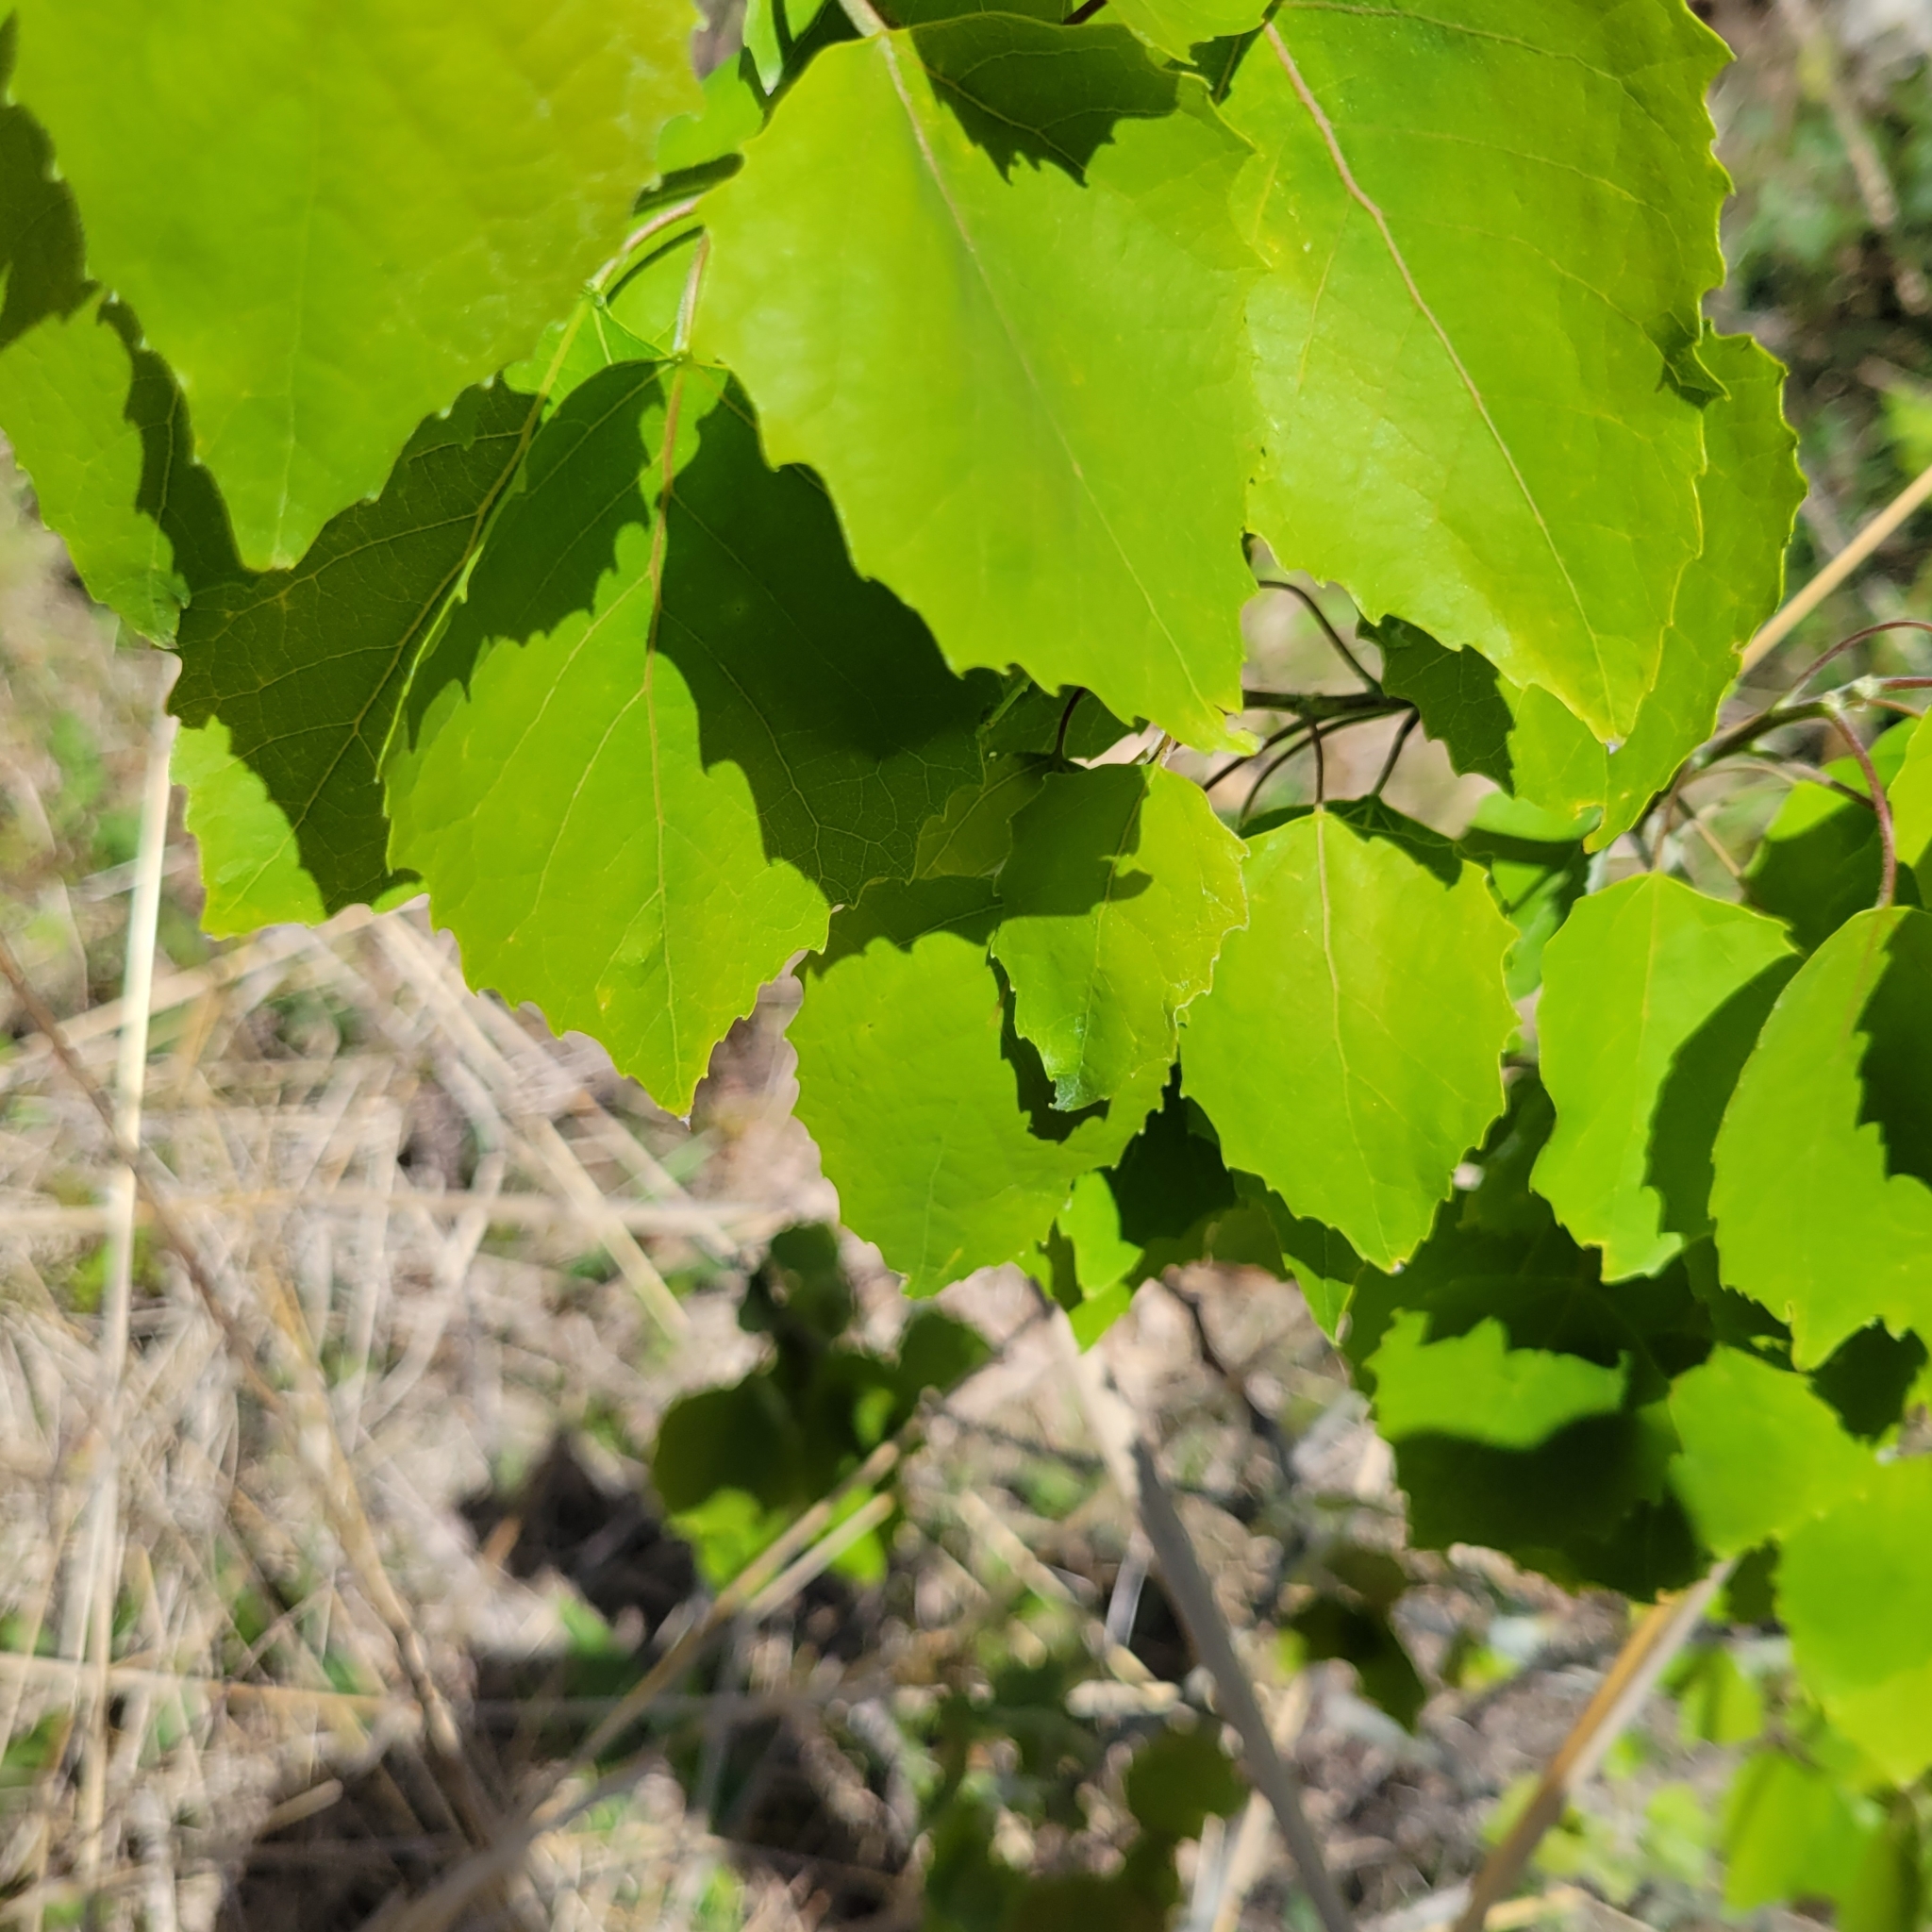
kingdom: Plantae
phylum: Tracheophyta
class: Magnoliopsida
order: Malpighiales
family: Salicaceae
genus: Populus
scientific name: Populus grandidentata
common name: Bigtooth aspen
